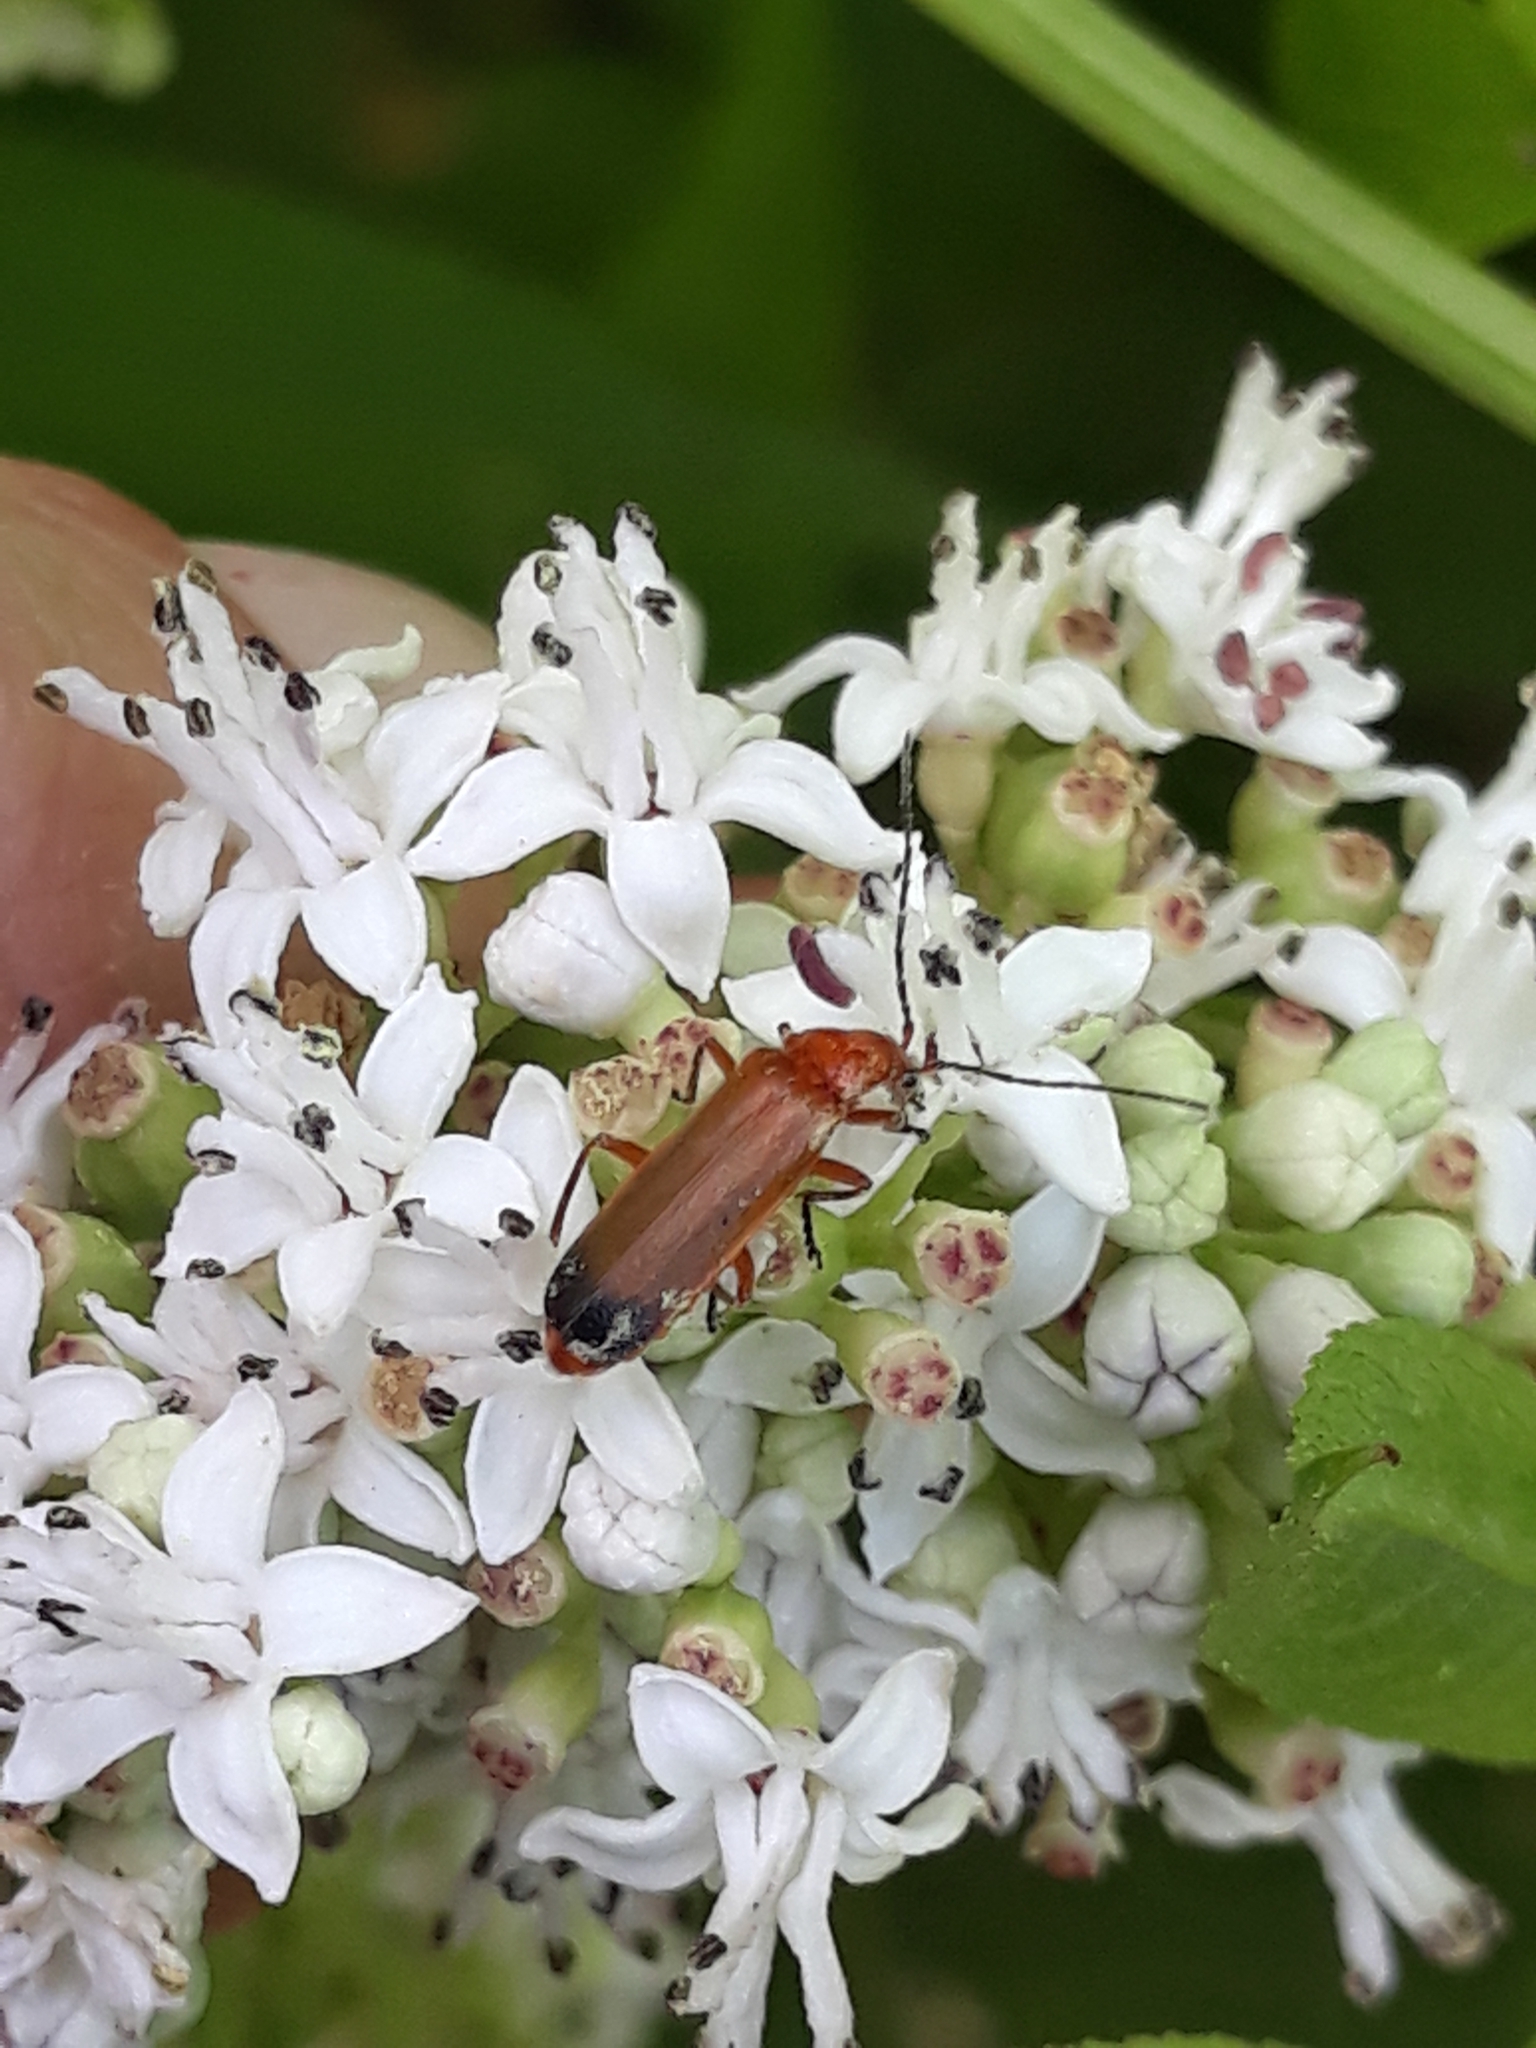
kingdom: Animalia
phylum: Arthropoda
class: Insecta
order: Coleoptera
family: Cantharidae
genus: Rhagonycha
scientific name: Rhagonycha fulva
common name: Common red soldier beetle
